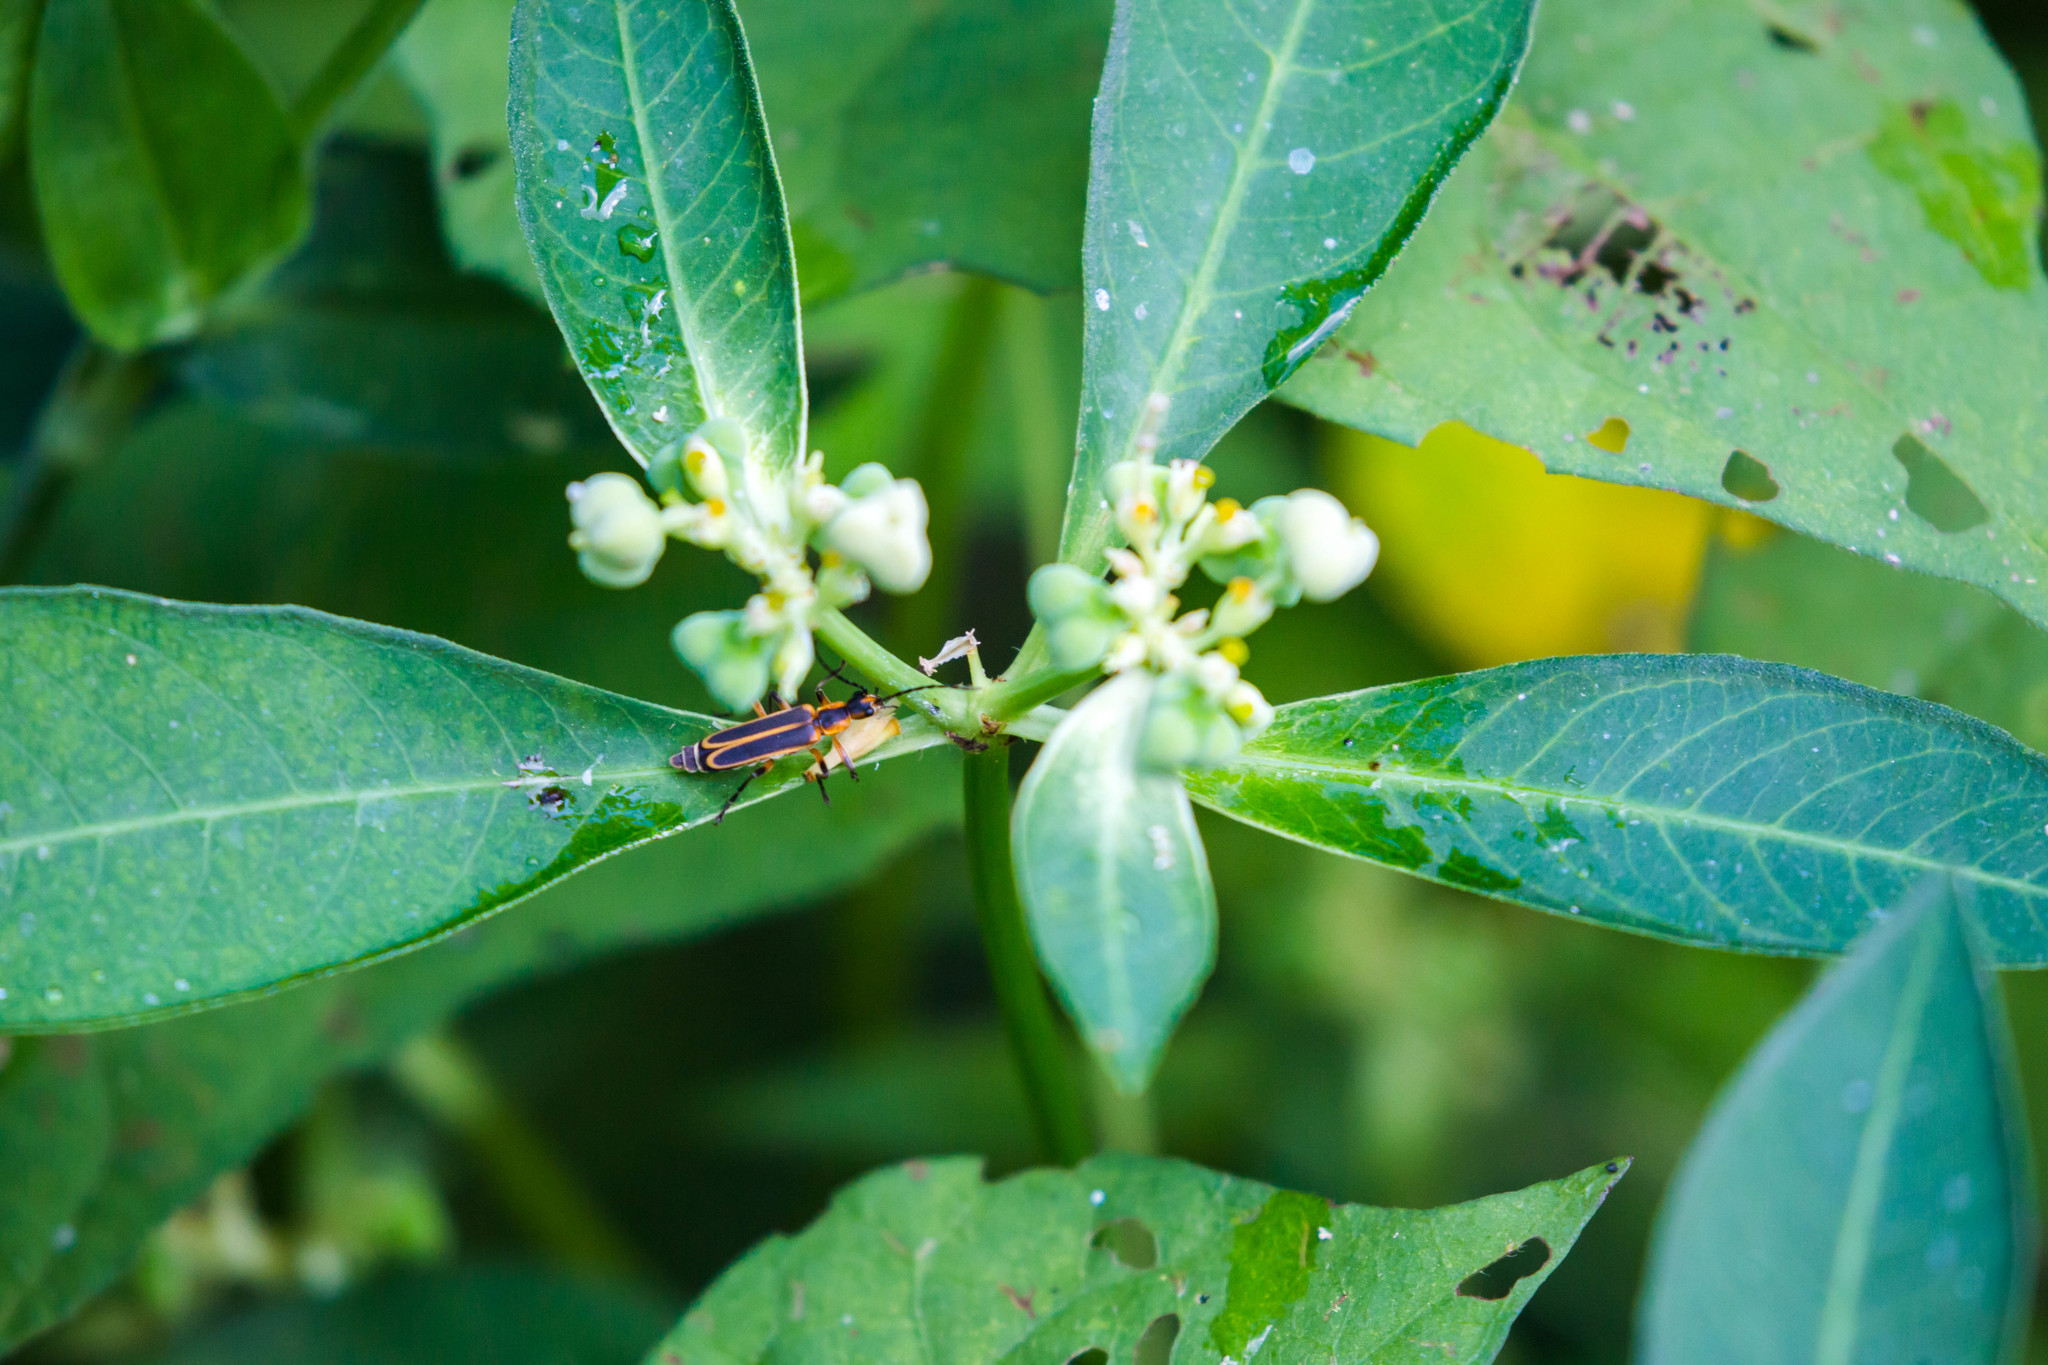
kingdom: Animalia
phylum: Arthropoda
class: Insecta
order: Coleoptera
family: Cantharidae
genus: Chauliognathus
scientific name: Chauliognathus marginatus
